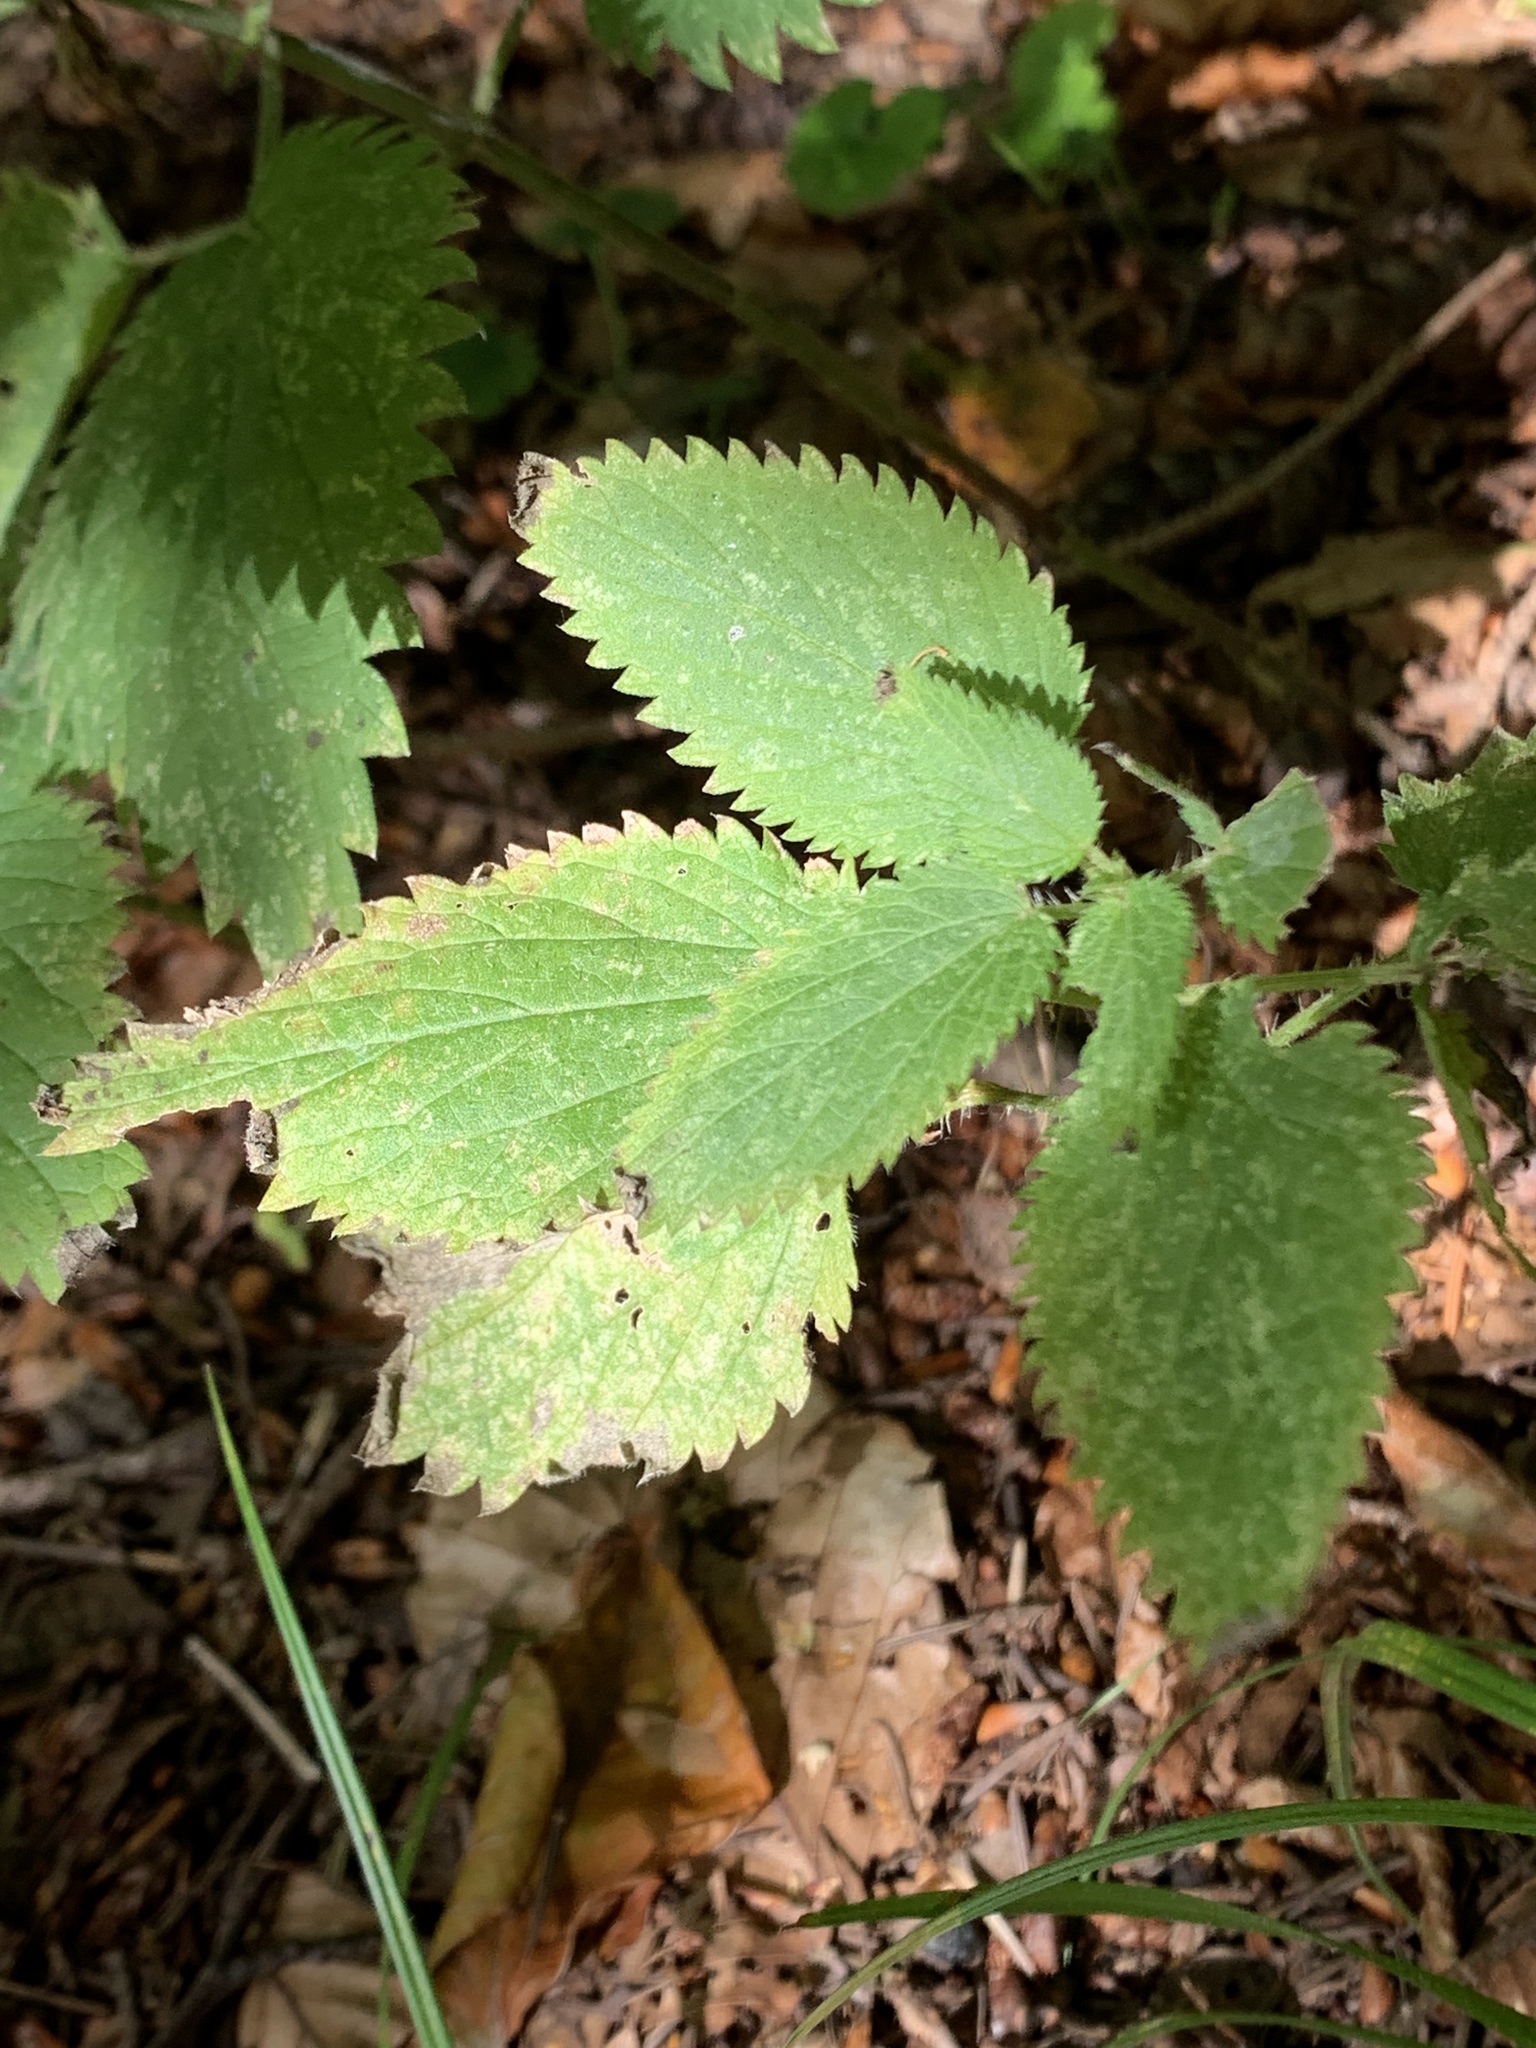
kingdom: Plantae
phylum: Tracheophyta
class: Magnoliopsida
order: Rosales
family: Urticaceae
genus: Urtica
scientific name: Urtica dioica
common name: Common nettle
